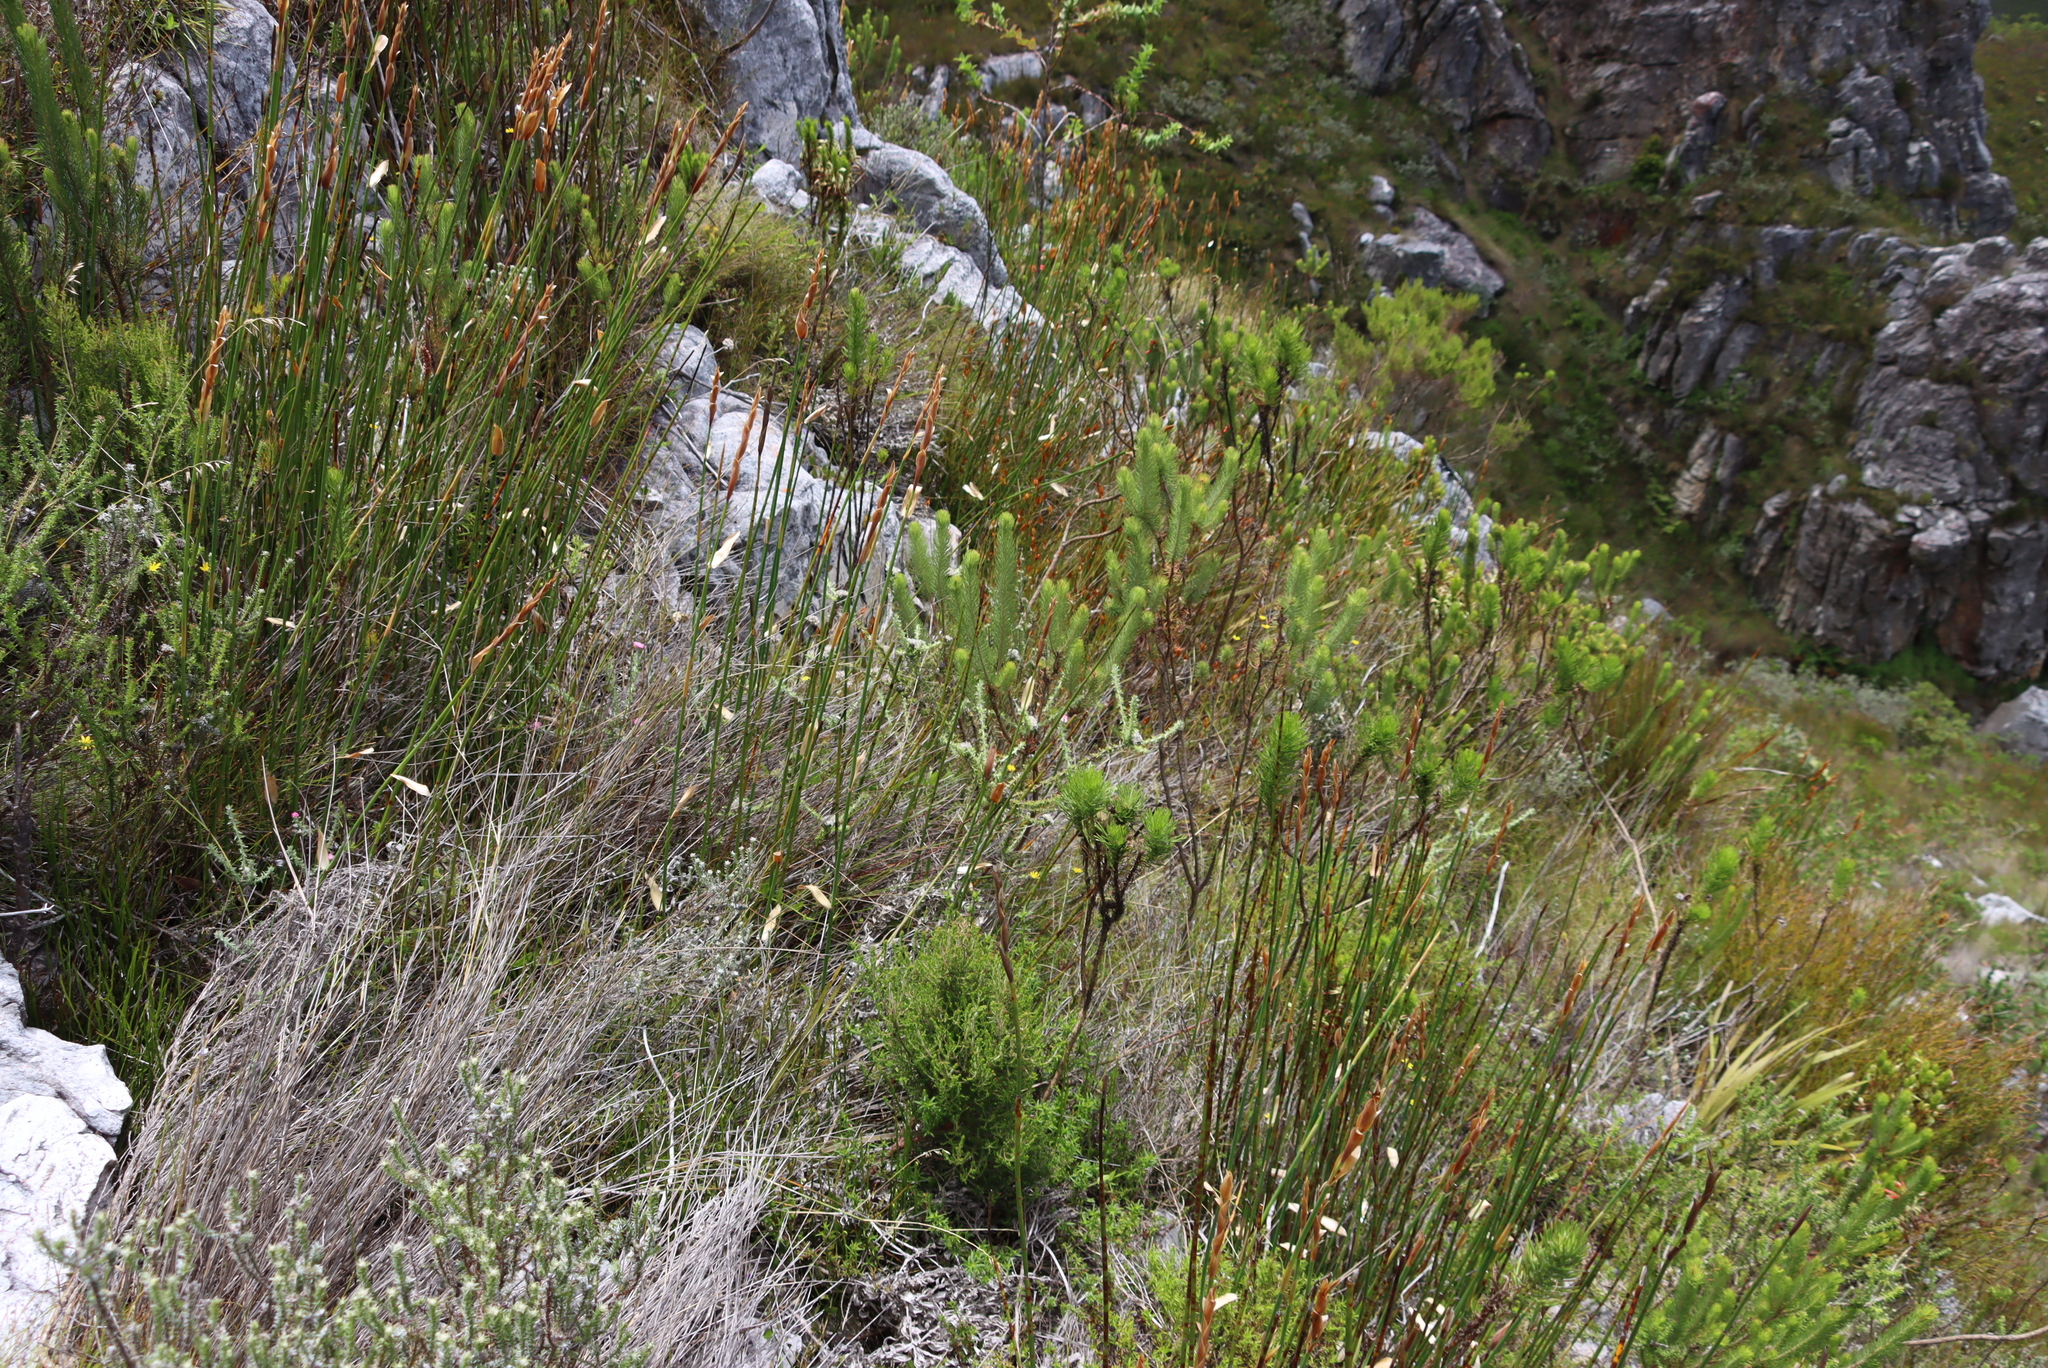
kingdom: Plantae
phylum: Tracheophyta
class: Magnoliopsida
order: Asterales
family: Asteraceae
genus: Metalasia
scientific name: Metalasia cephalotes
